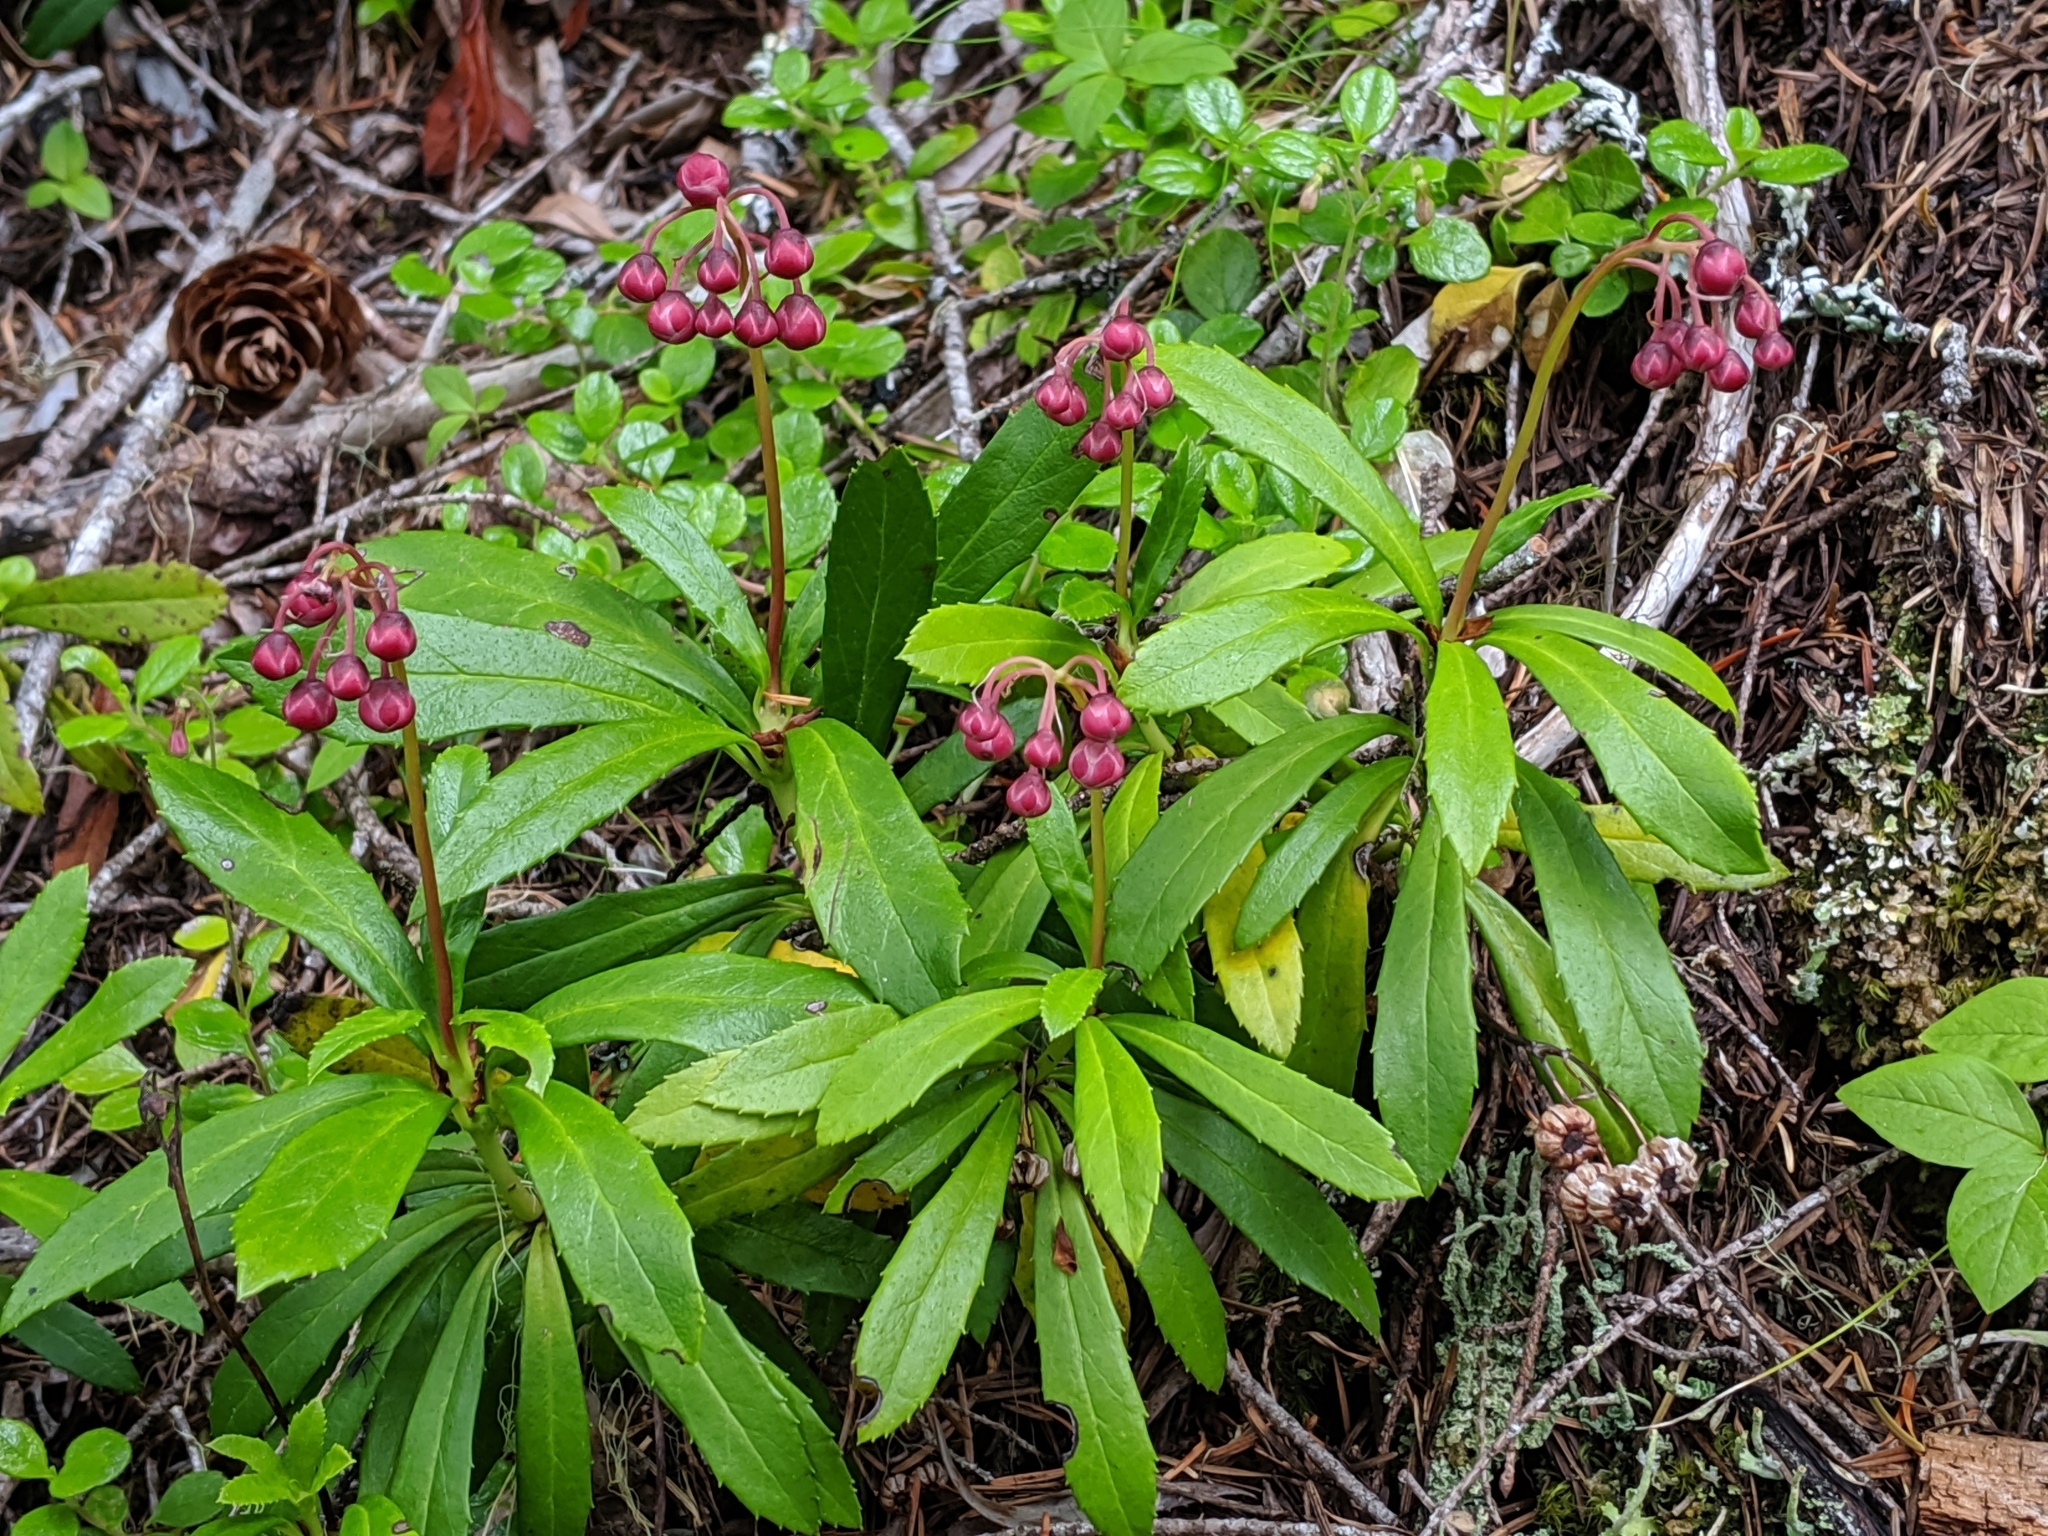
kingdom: Plantae
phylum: Tracheophyta
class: Magnoliopsida
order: Ericales
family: Ericaceae
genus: Chimaphila
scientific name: Chimaphila umbellata
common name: Pipsissewa
